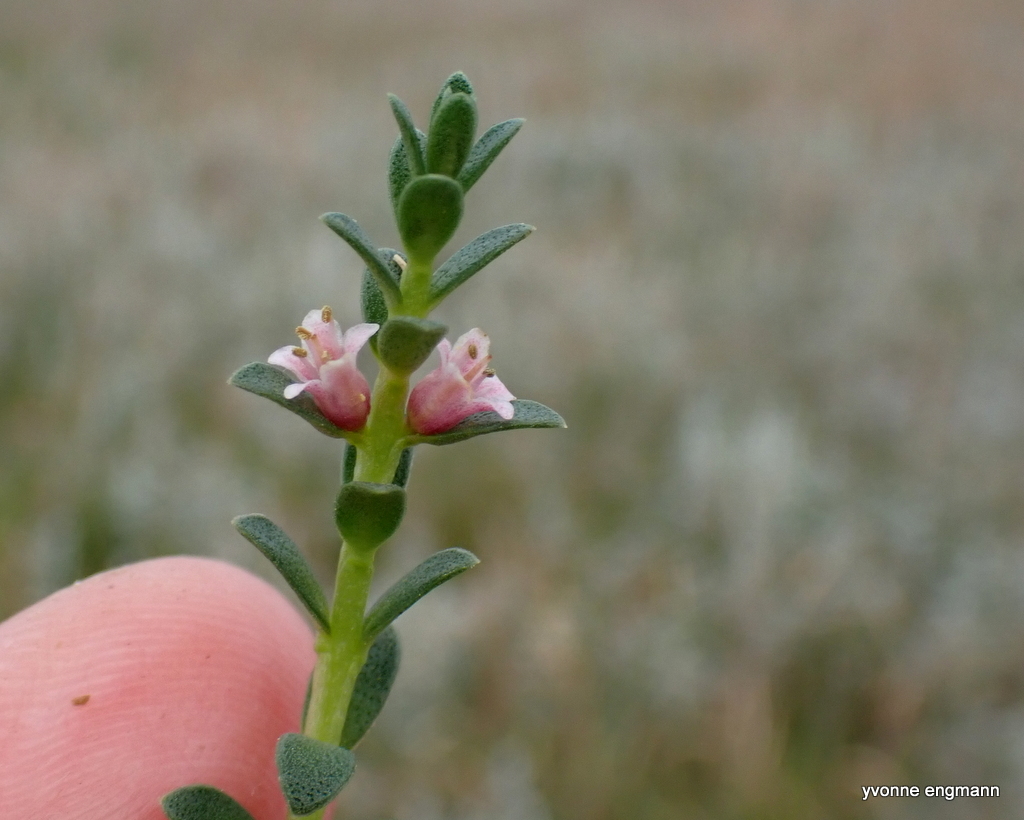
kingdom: Plantae
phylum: Tracheophyta
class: Magnoliopsida
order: Ericales
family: Primulaceae
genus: Lysimachia
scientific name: Lysimachia maritima
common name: Sea milkwort
